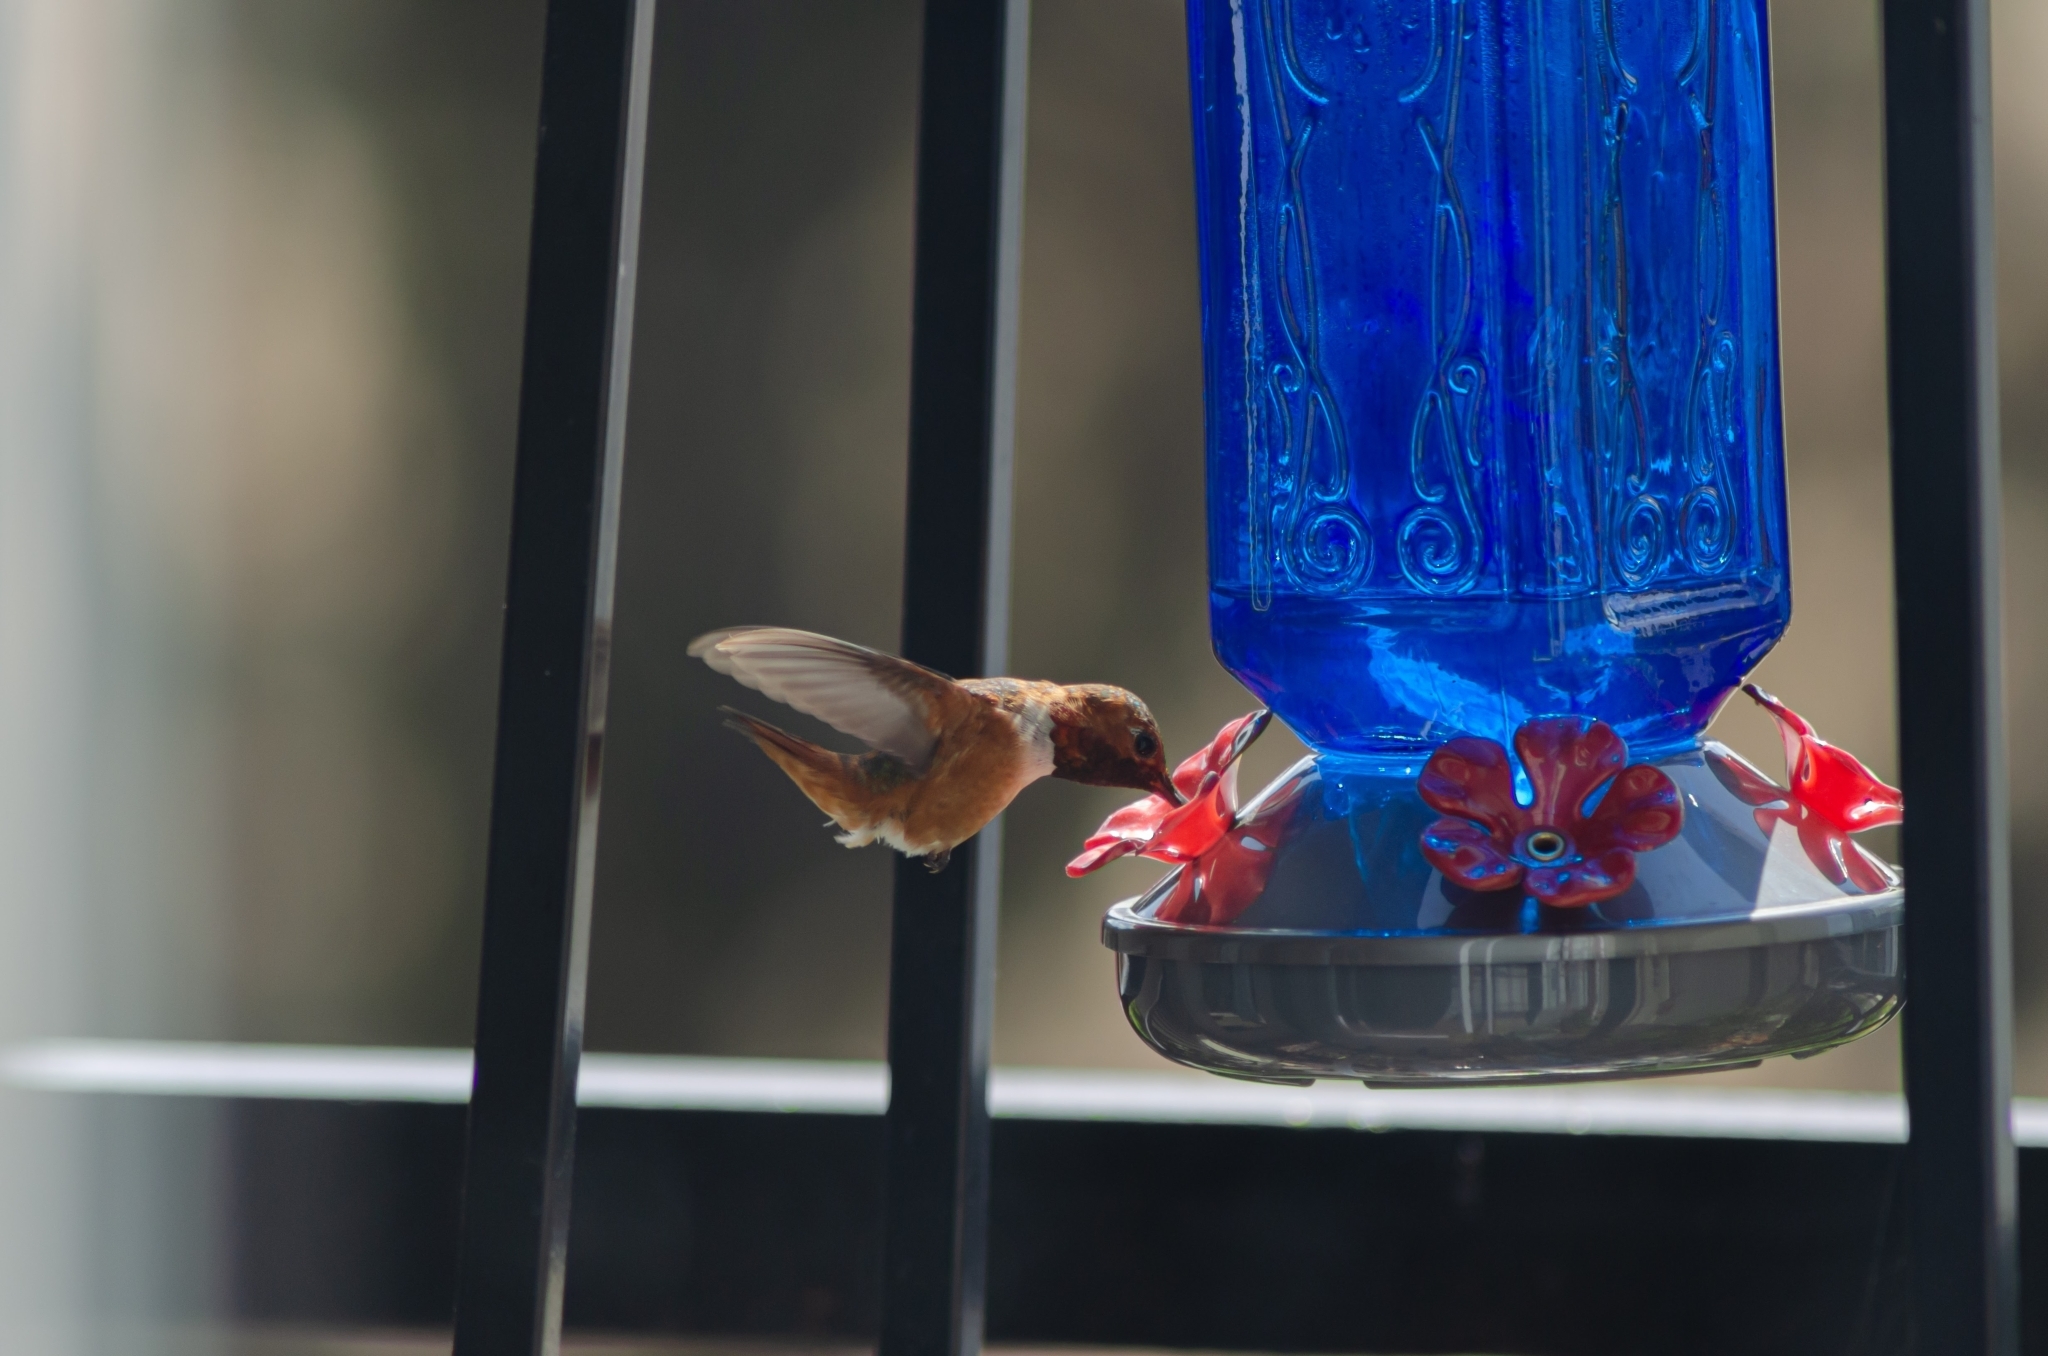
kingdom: Animalia
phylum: Chordata
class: Aves
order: Apodiformes
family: Trochilidae
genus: Selasphorus
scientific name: Selasphorus sasin
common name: Allen's hummingbird
